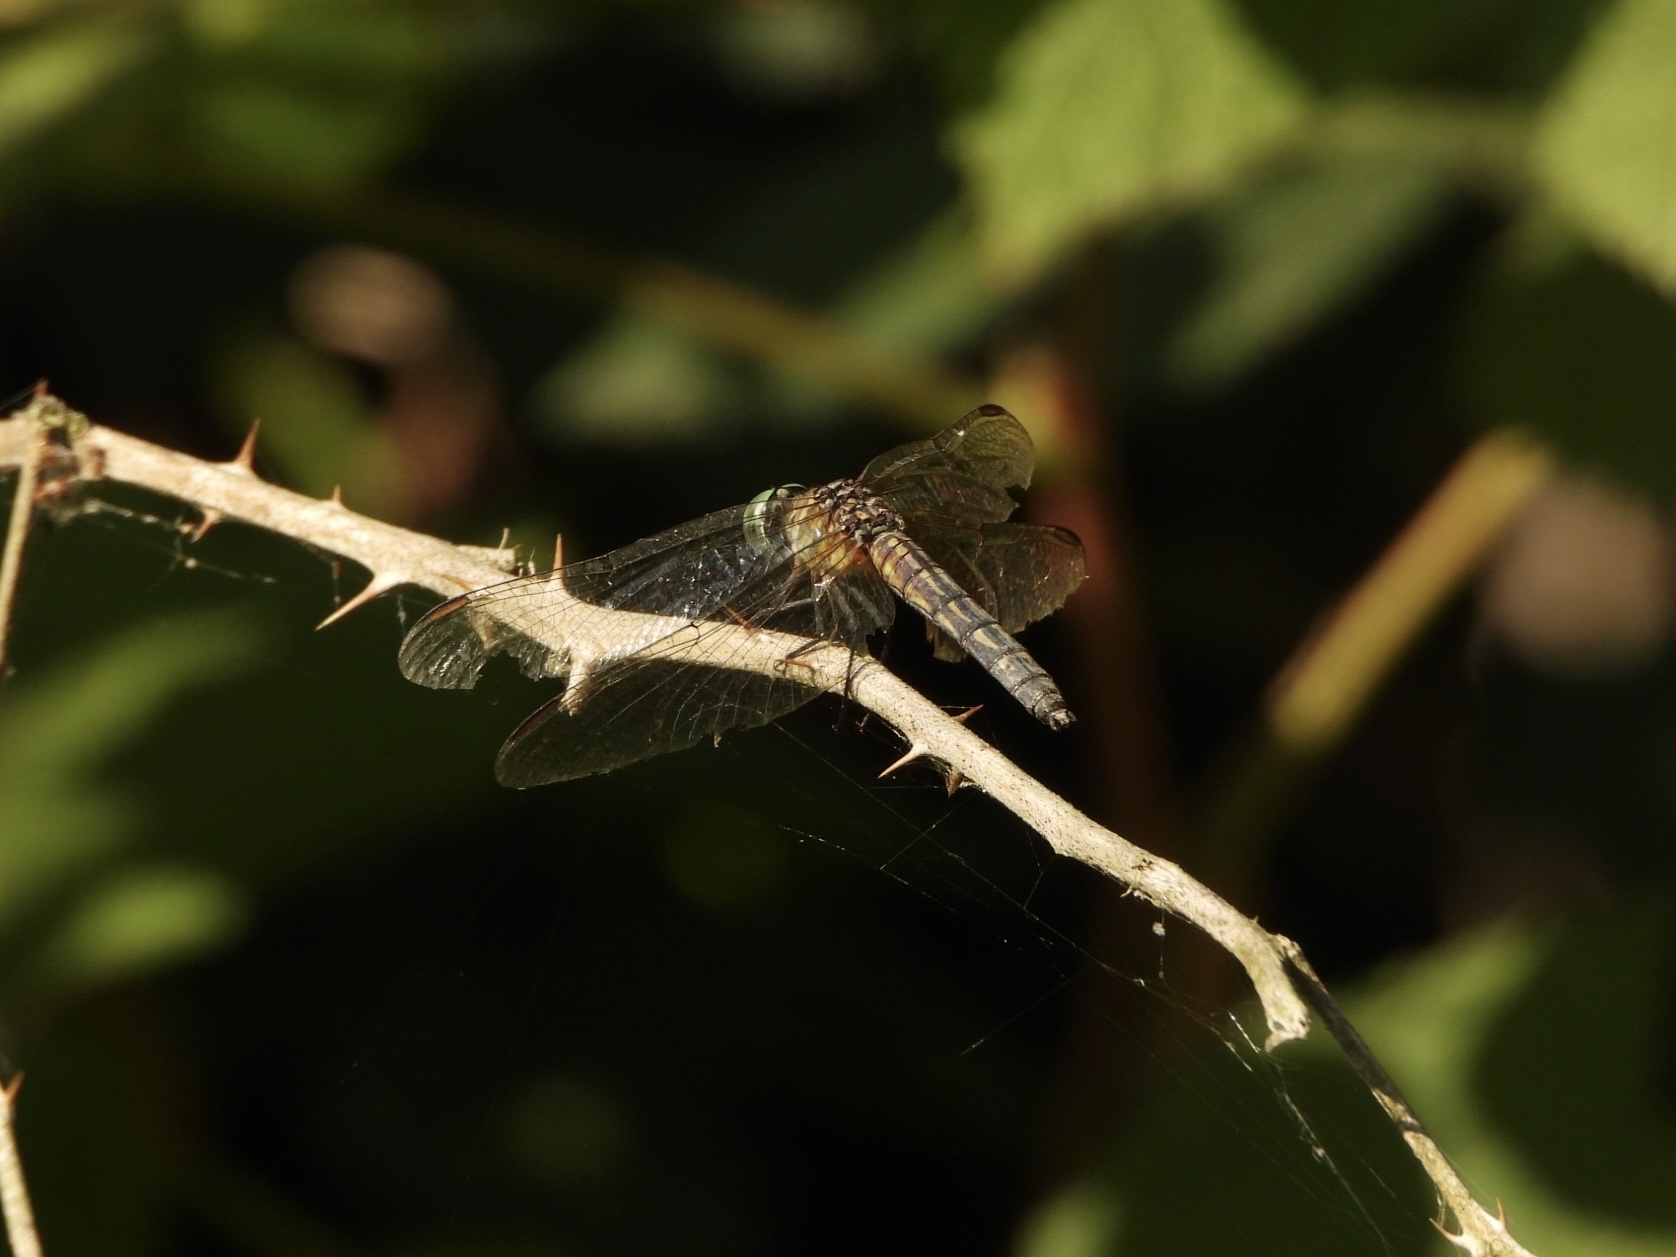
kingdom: Animalia
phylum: Arthropoda
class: Insecta
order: Odonata
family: Libellulidae
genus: Pachydiplax
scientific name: Pachydiplax longipennis
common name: Blue dasher
